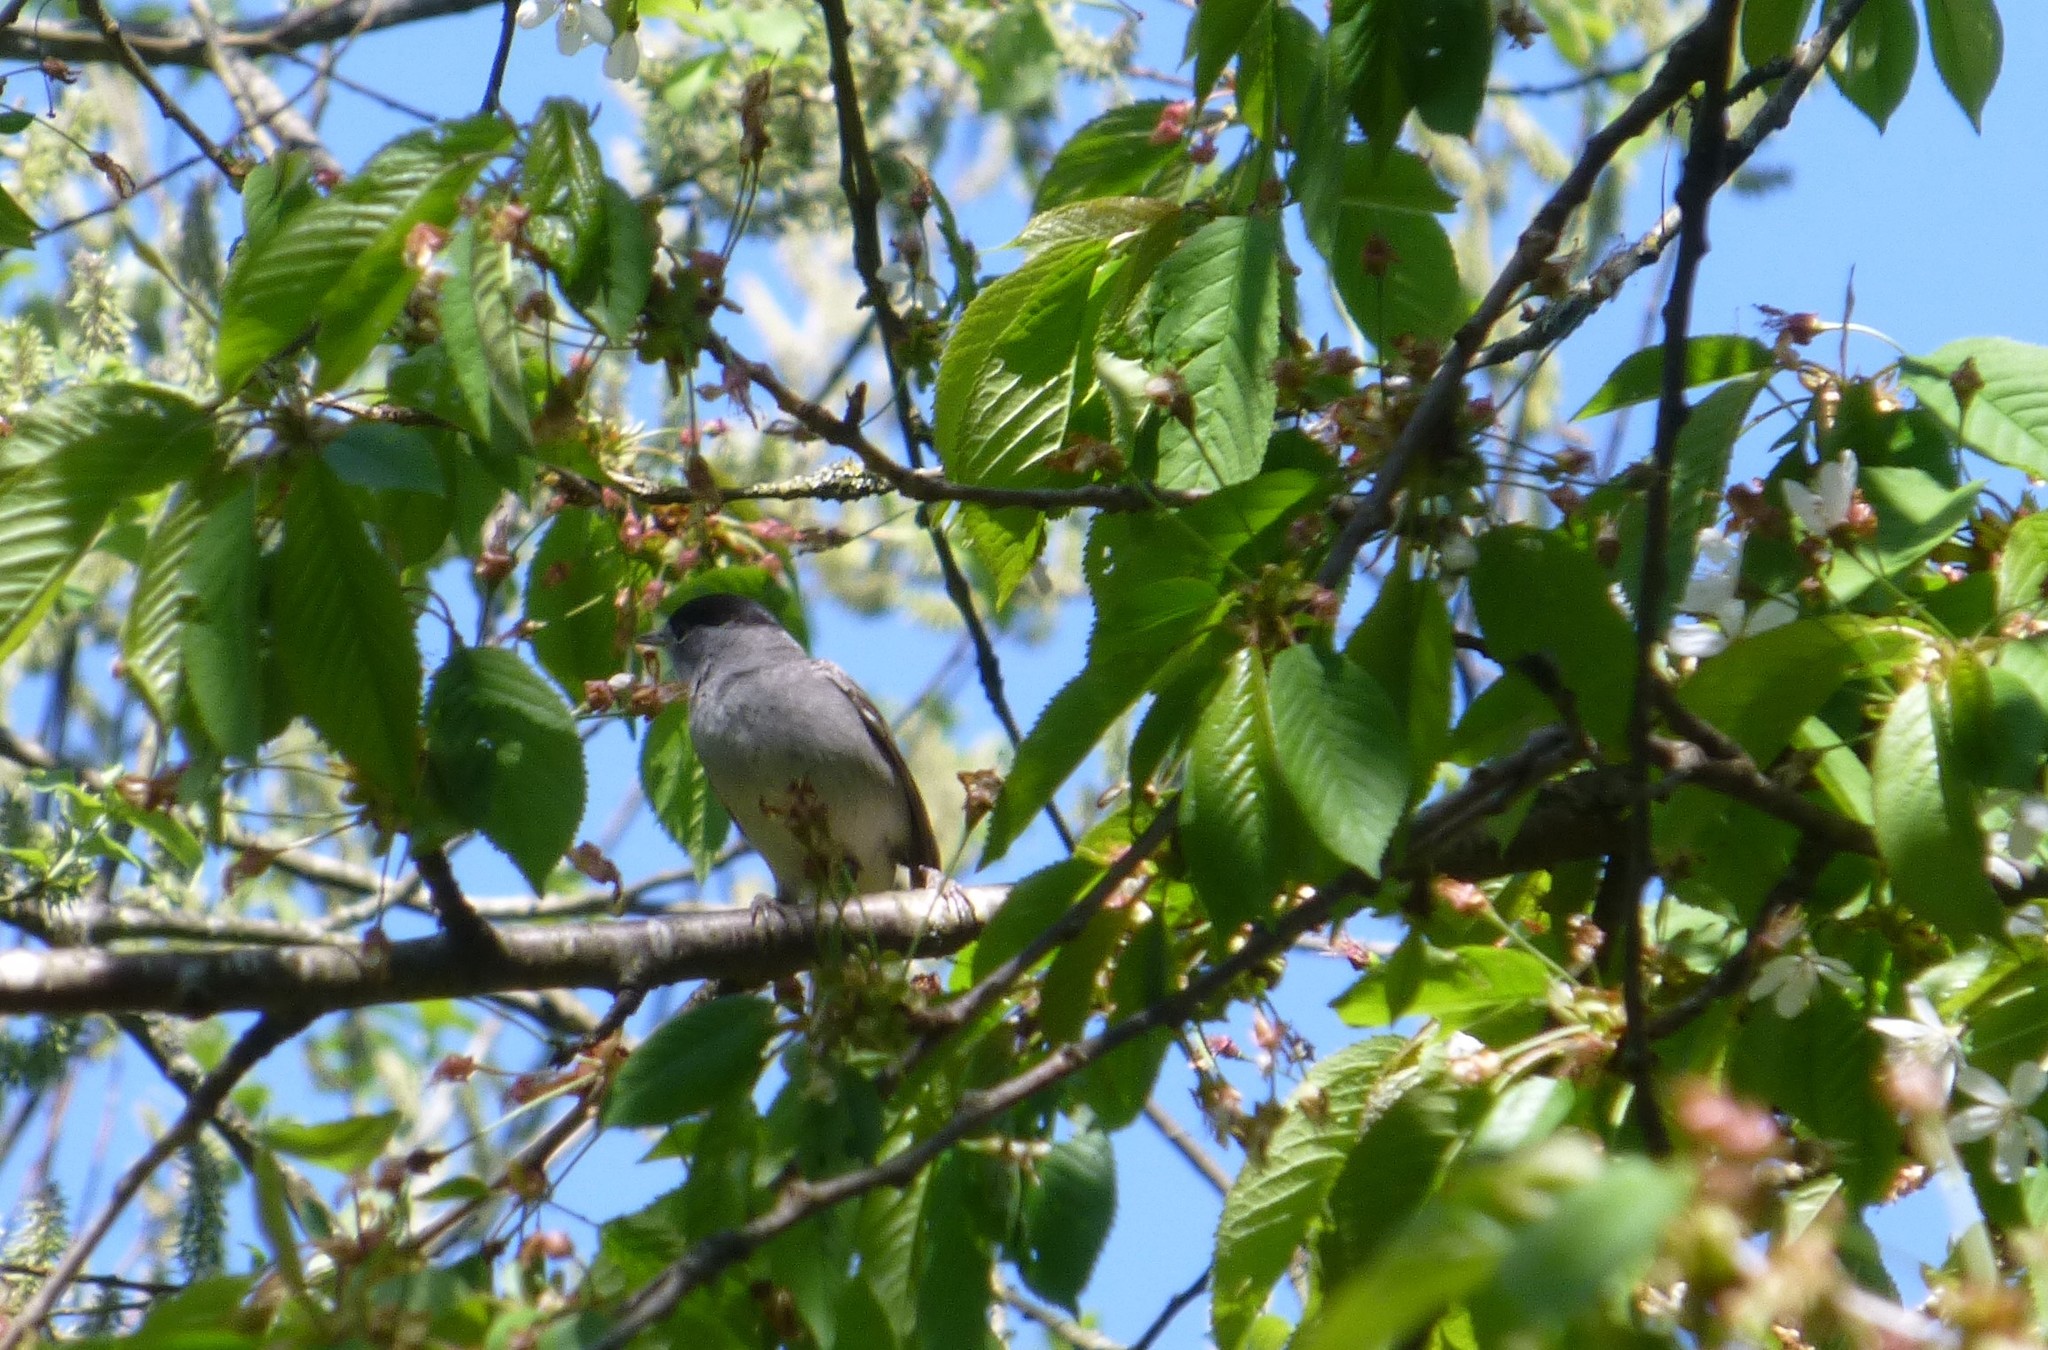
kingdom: Animalia
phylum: Chordata
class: Aves
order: Passeriformes
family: Sylviidae
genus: Sylvia
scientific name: Sylvia atricapilla
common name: Eurasian blackcap
